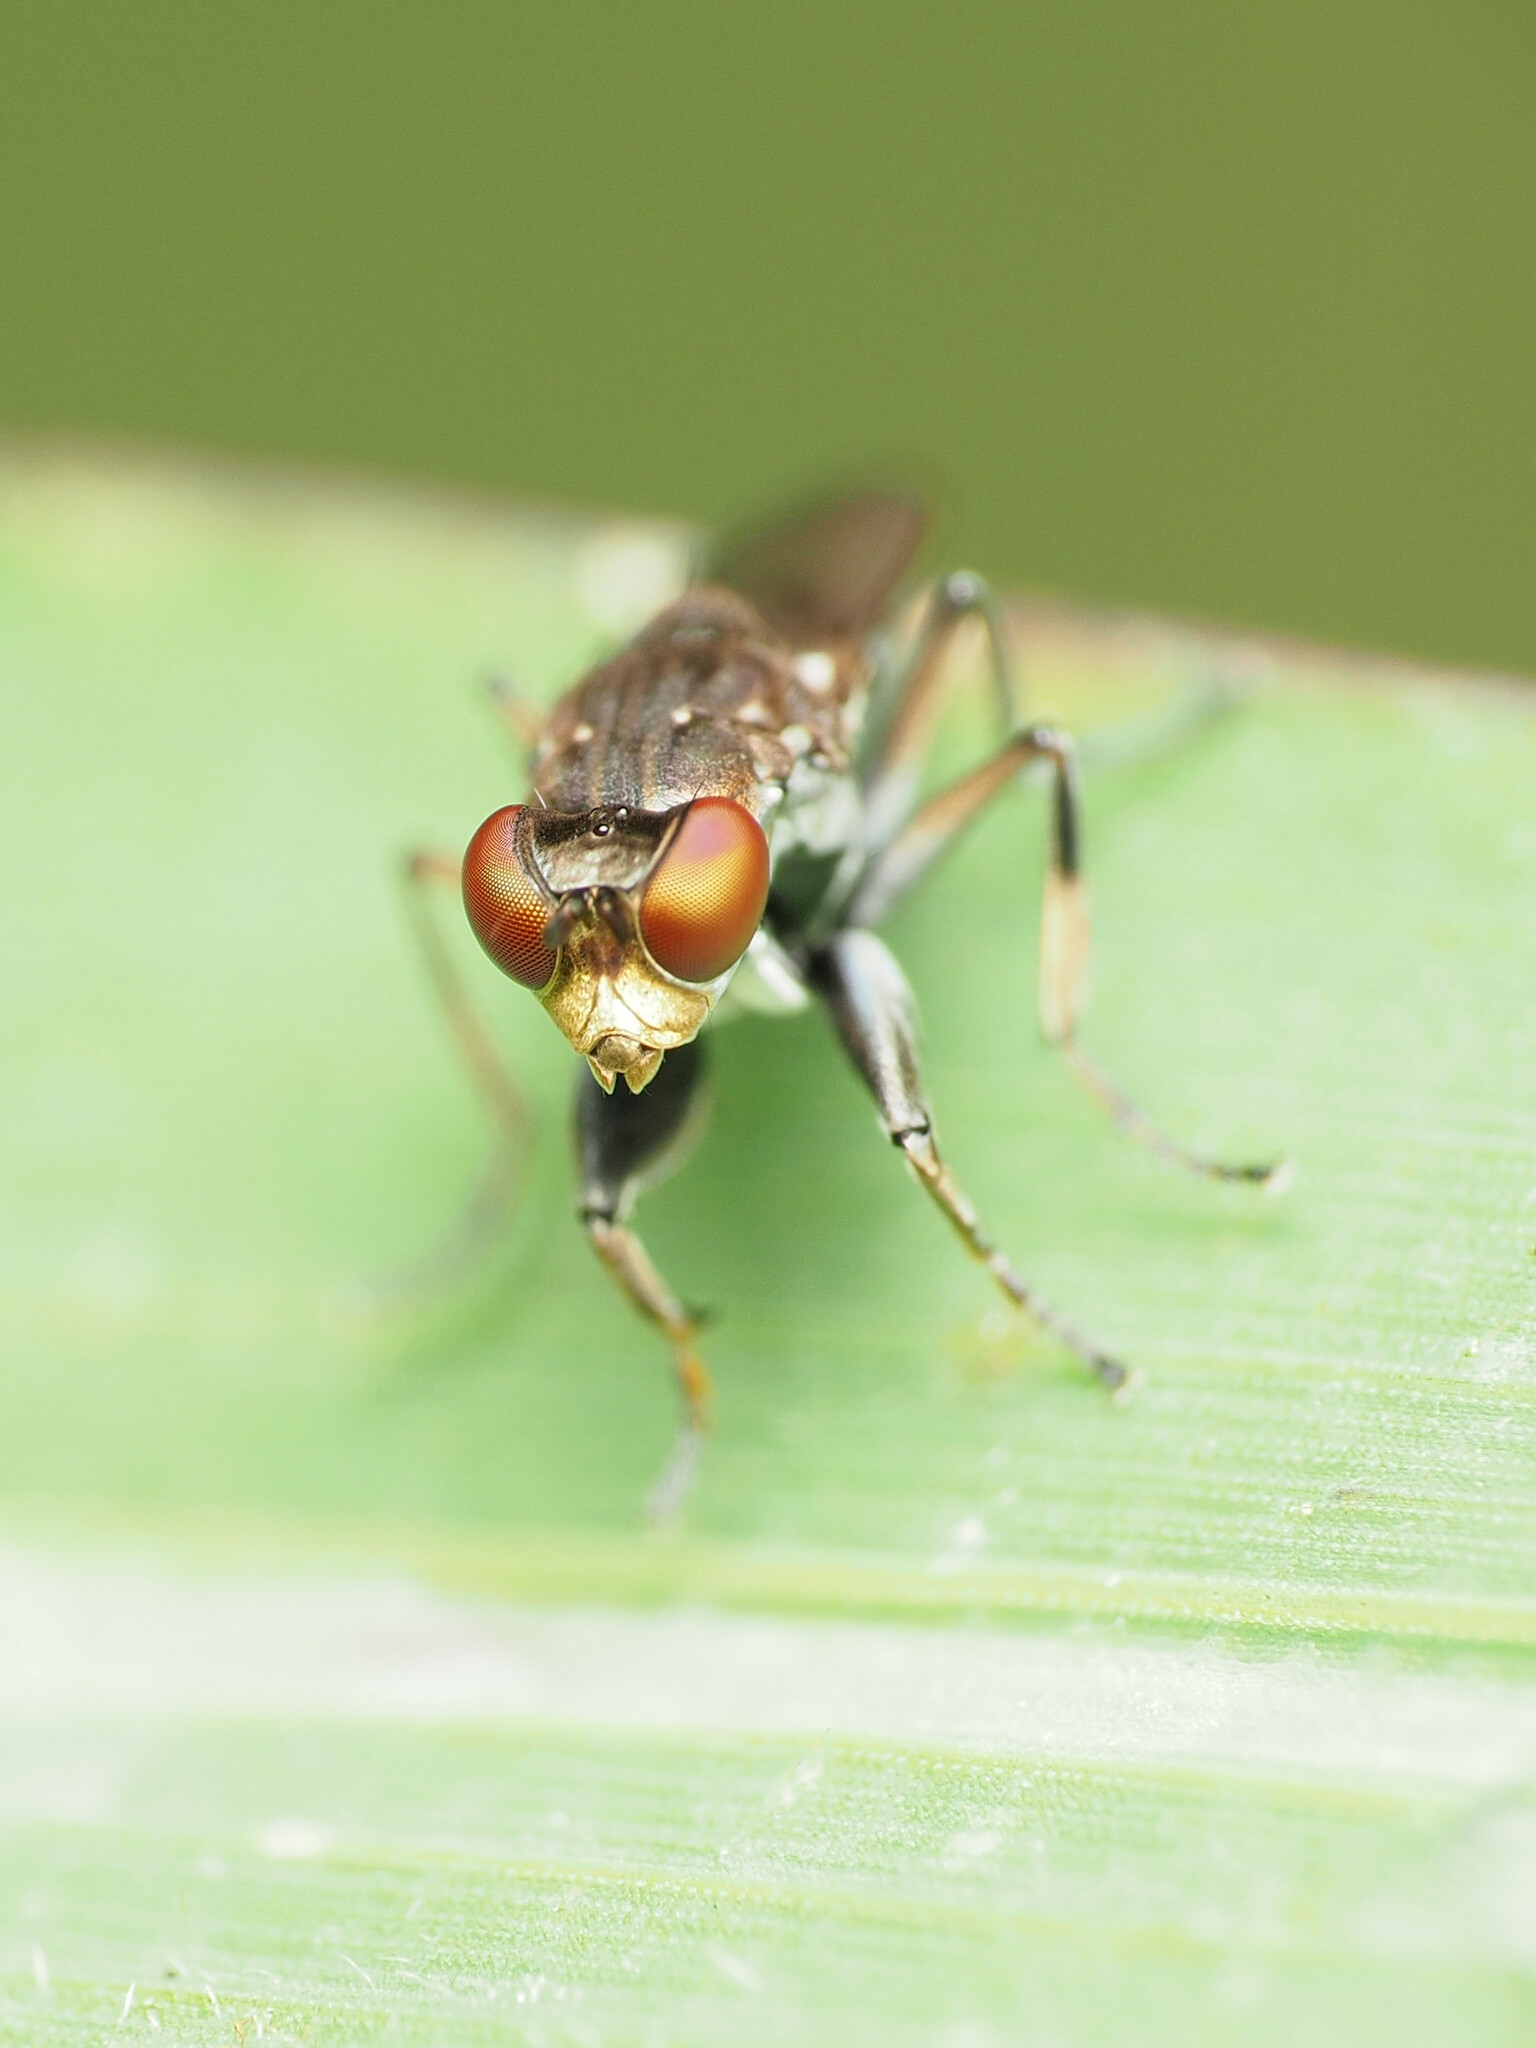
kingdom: Animalia
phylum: Arthropoda
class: Insecta
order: Diptera
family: Ephydridae
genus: Ochthera
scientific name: Ochthera tuberculata
